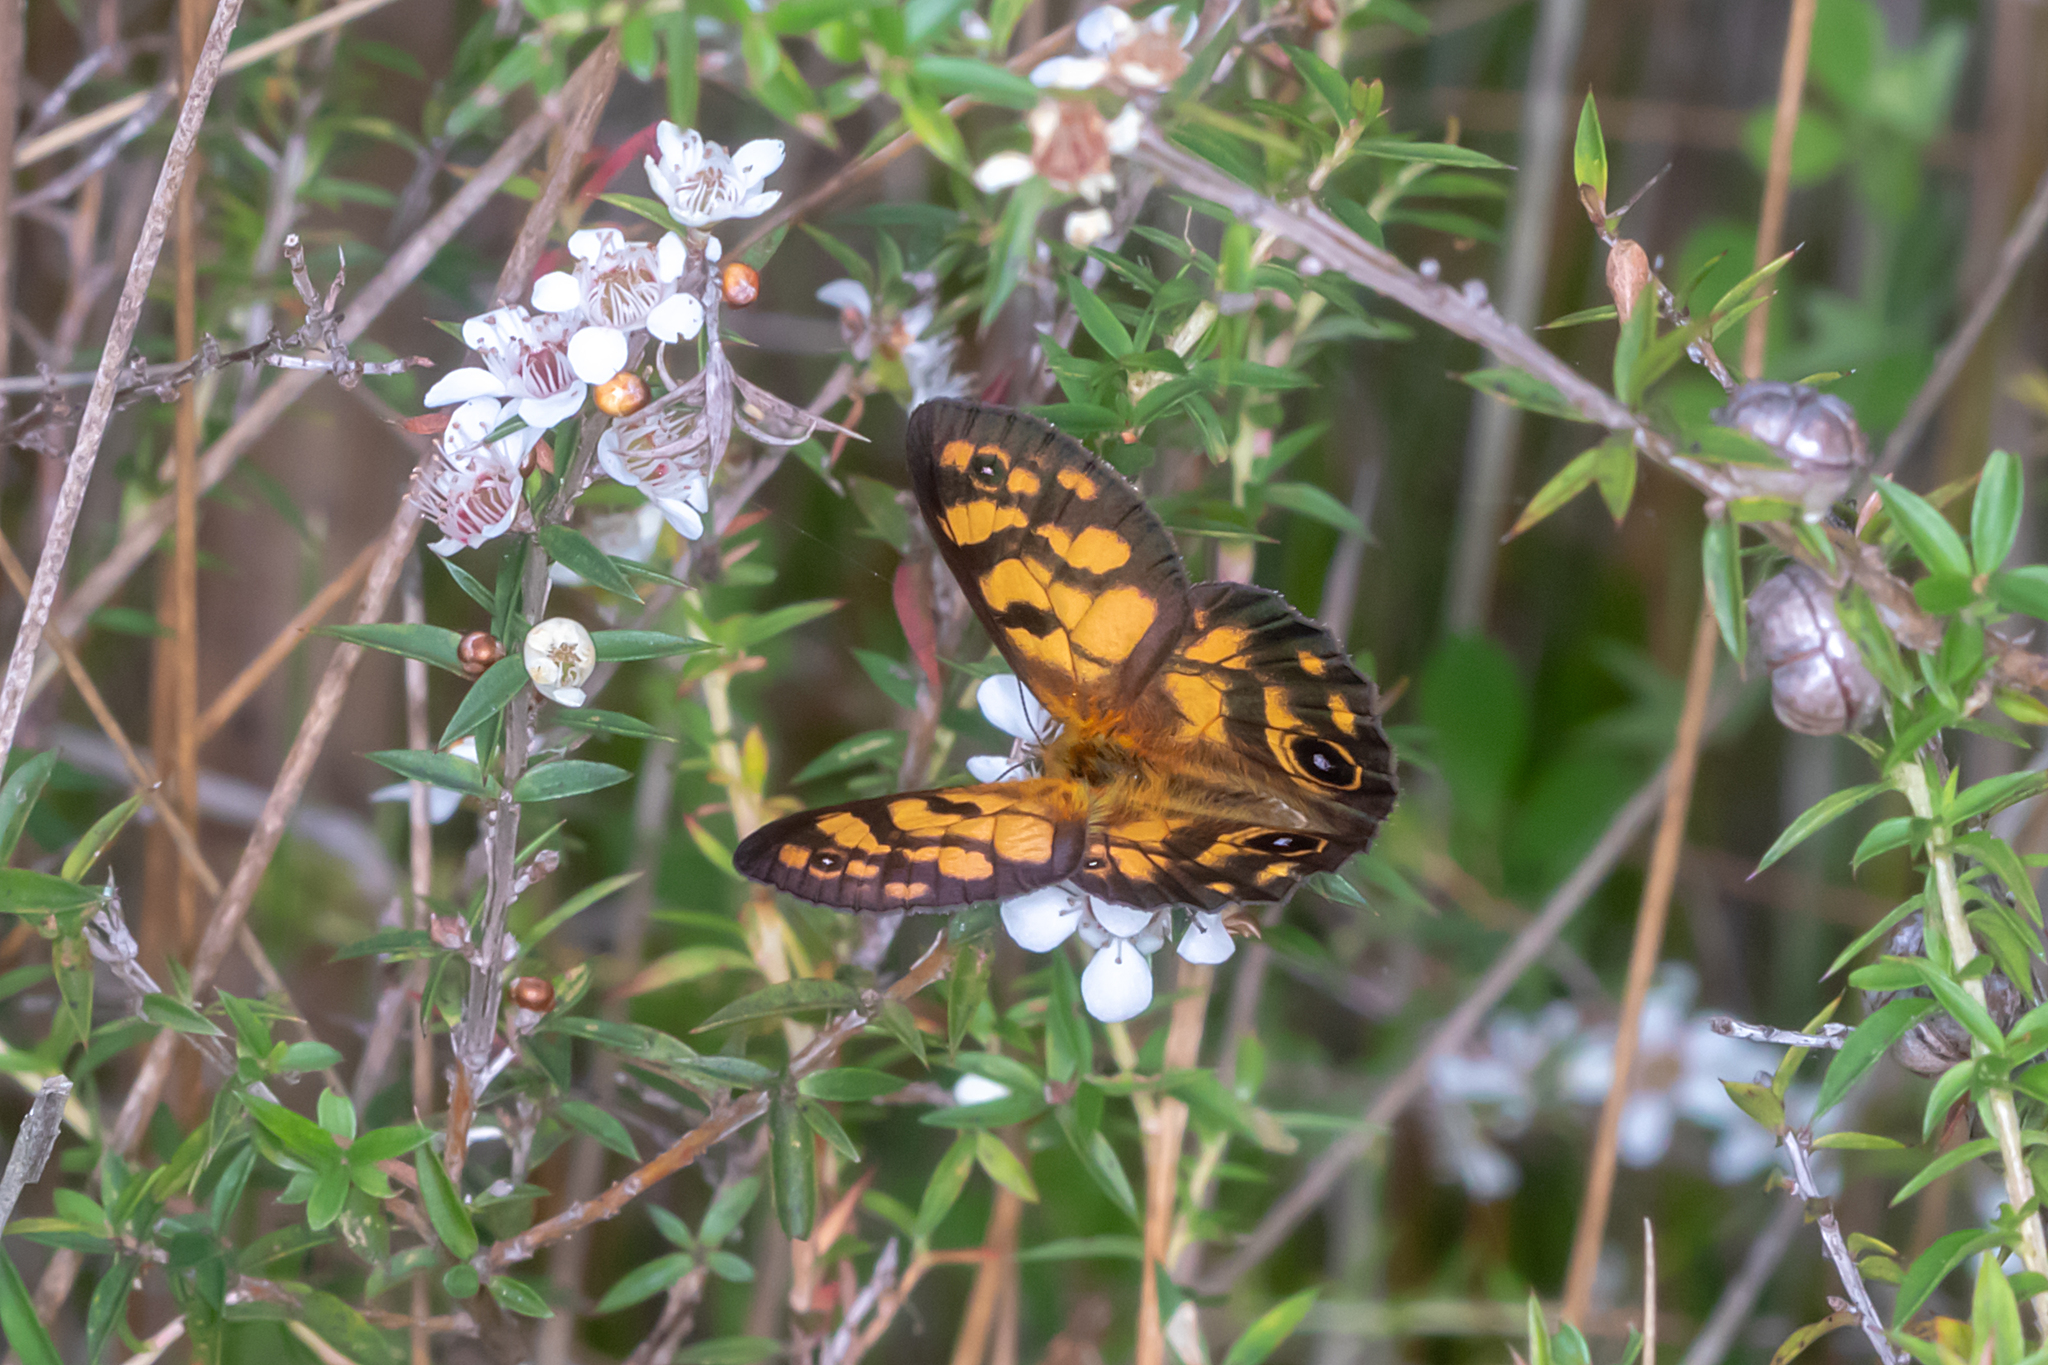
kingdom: Animalia
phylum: Arthropoda
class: Insecta
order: Lepidoptera
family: Nymphalidae
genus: Heteronympha
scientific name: Heteronympha cordace
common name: Bright-eyed brown
